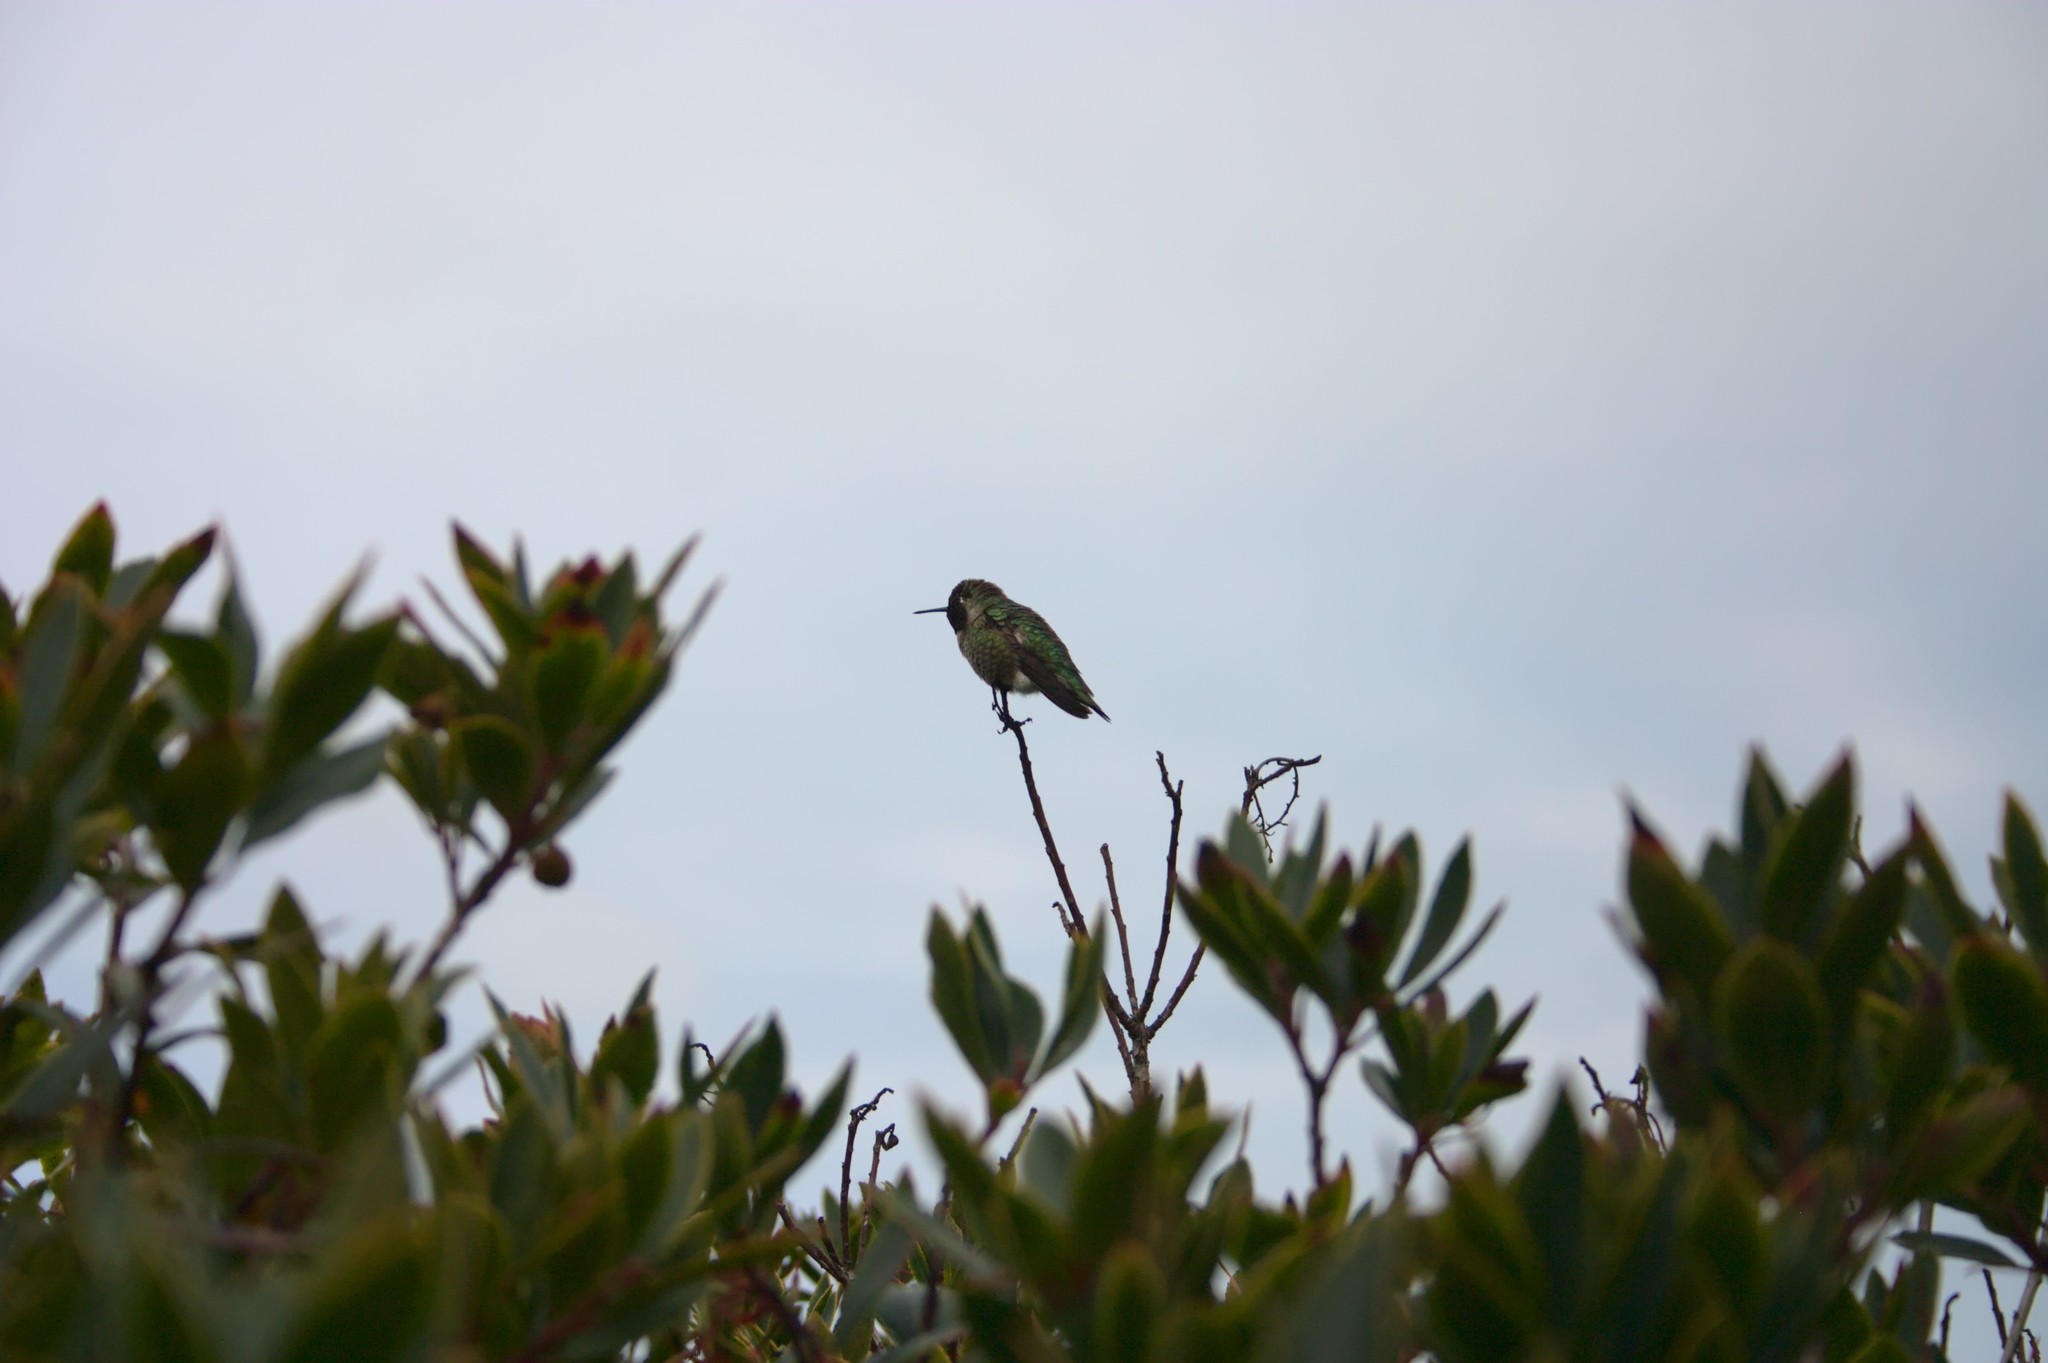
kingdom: Animalia
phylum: Chordata
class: Aves
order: Apodiformes
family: Trochilidae
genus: Calypte
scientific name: Calypte anna
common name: Anna's hummingbird
